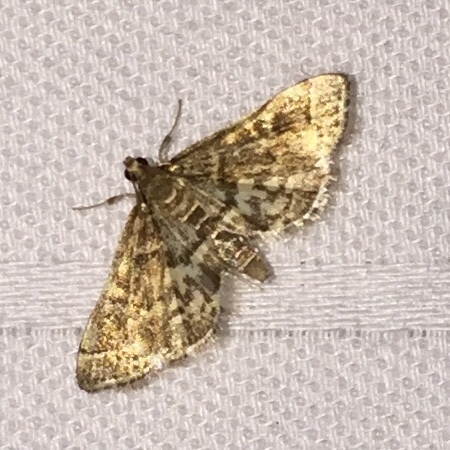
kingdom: Animalia
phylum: Arthropoda
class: Insecta
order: Lepidoptera
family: Crambidae
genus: Anageshna
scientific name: Anageshna primordialis
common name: Yellow-spotted webworm moth
